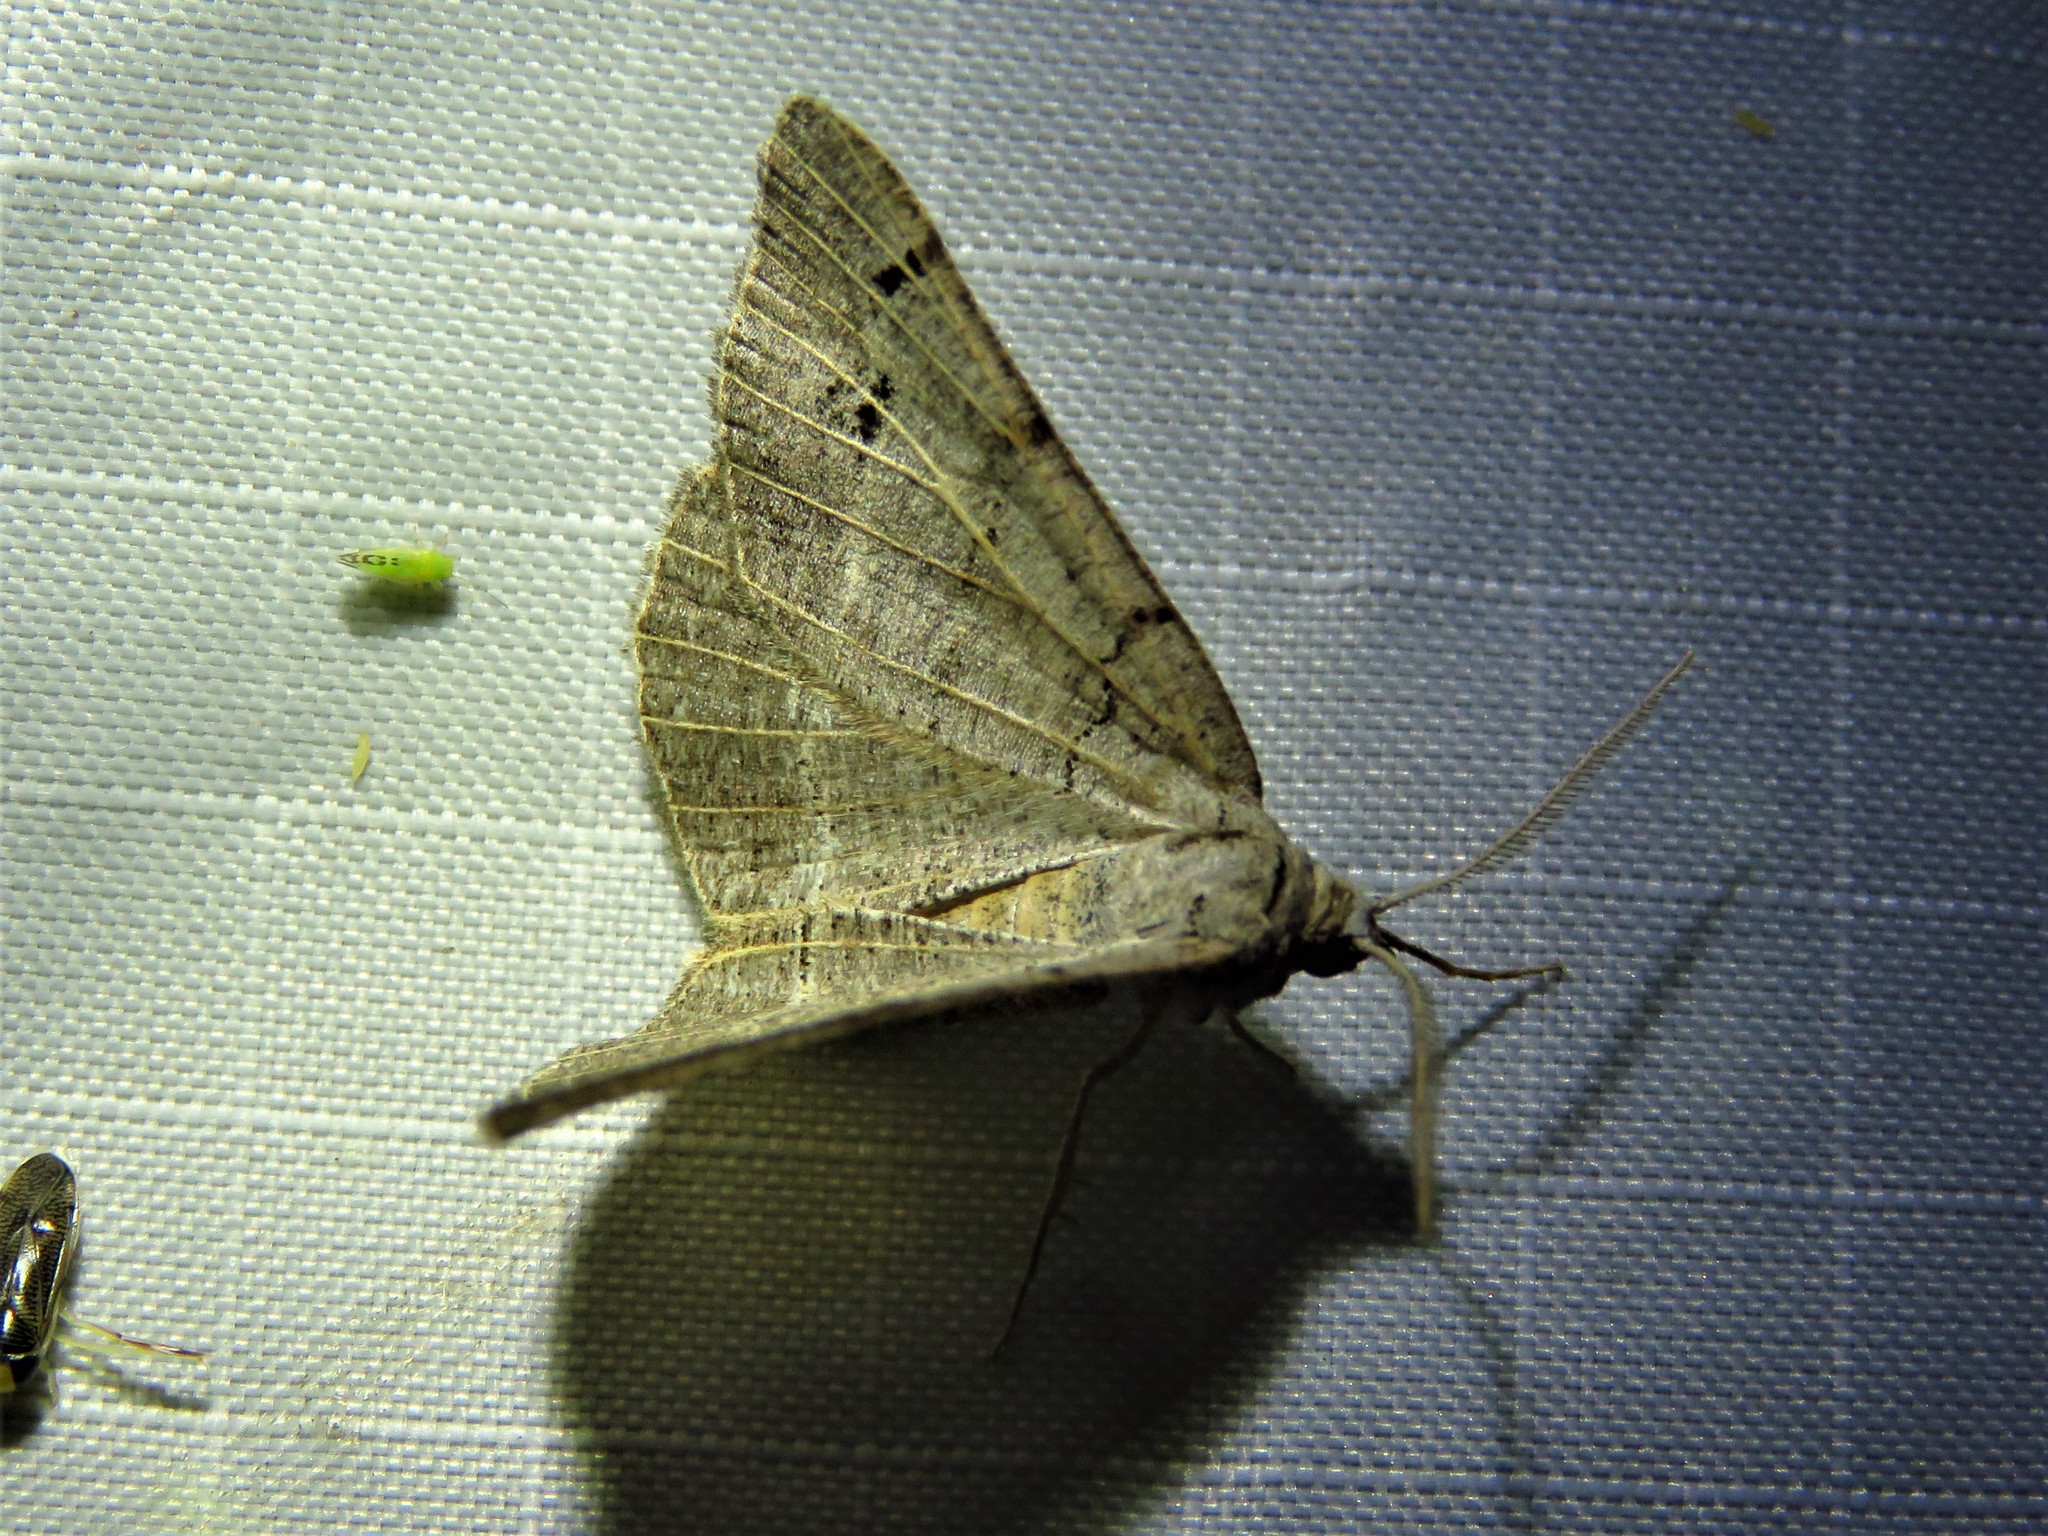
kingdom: Animalia
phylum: Arthropoda
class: Insecta
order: Lepidoptera
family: Geometridae
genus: Isturgia
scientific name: Isturgia dislocaria
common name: Pale-viened enconista
